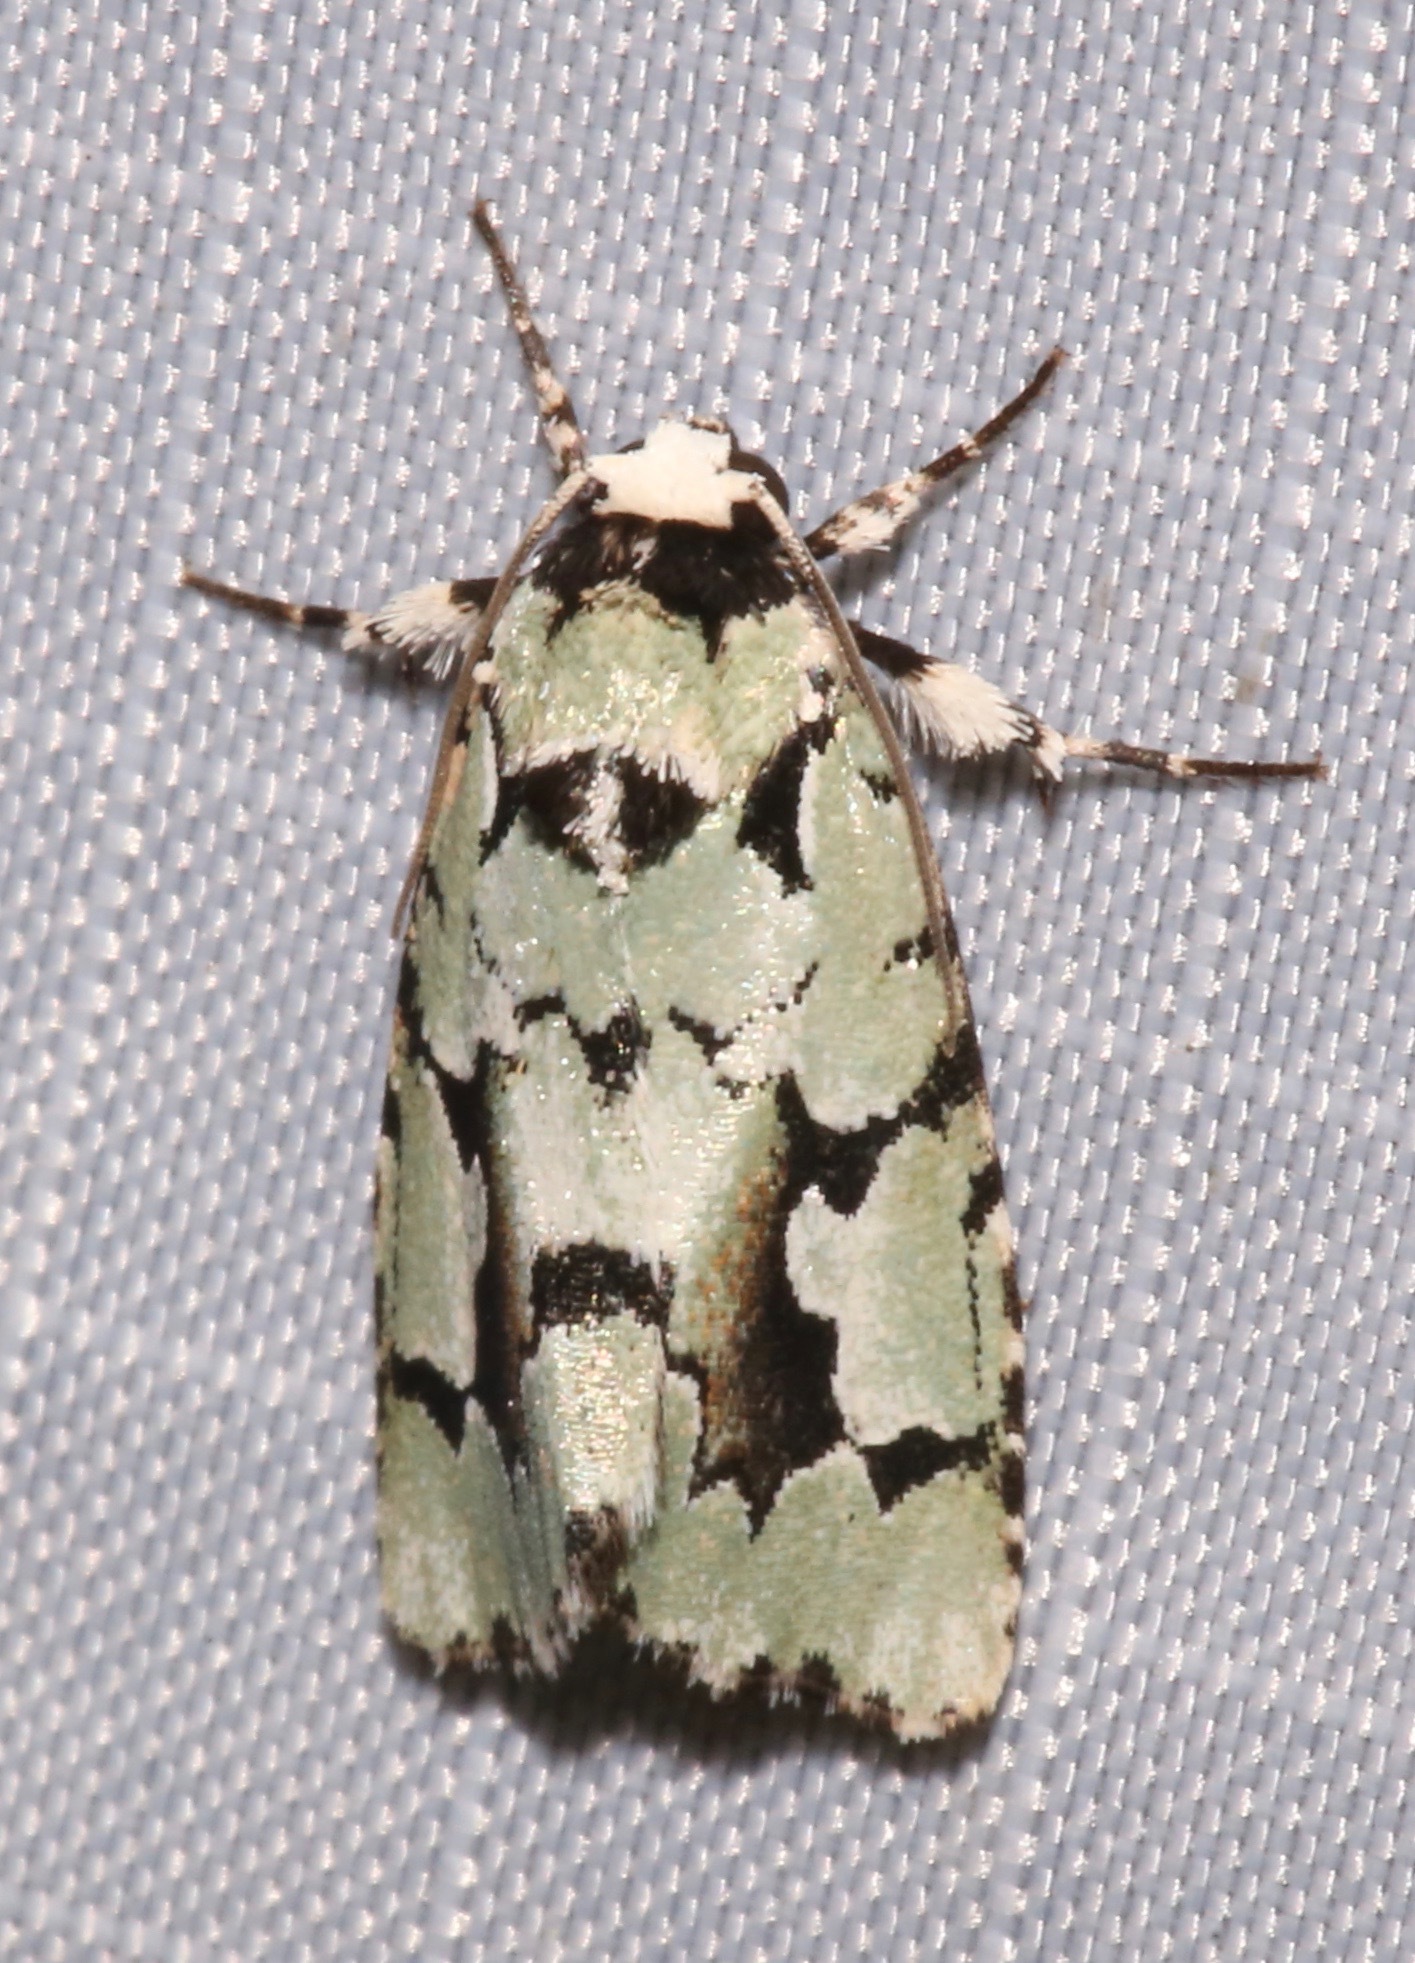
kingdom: Animalia
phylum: Arthropoda
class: Insecta
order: Lepidoptera
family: Noctuidae
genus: Emarginea
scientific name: Emarginea dulcinea
